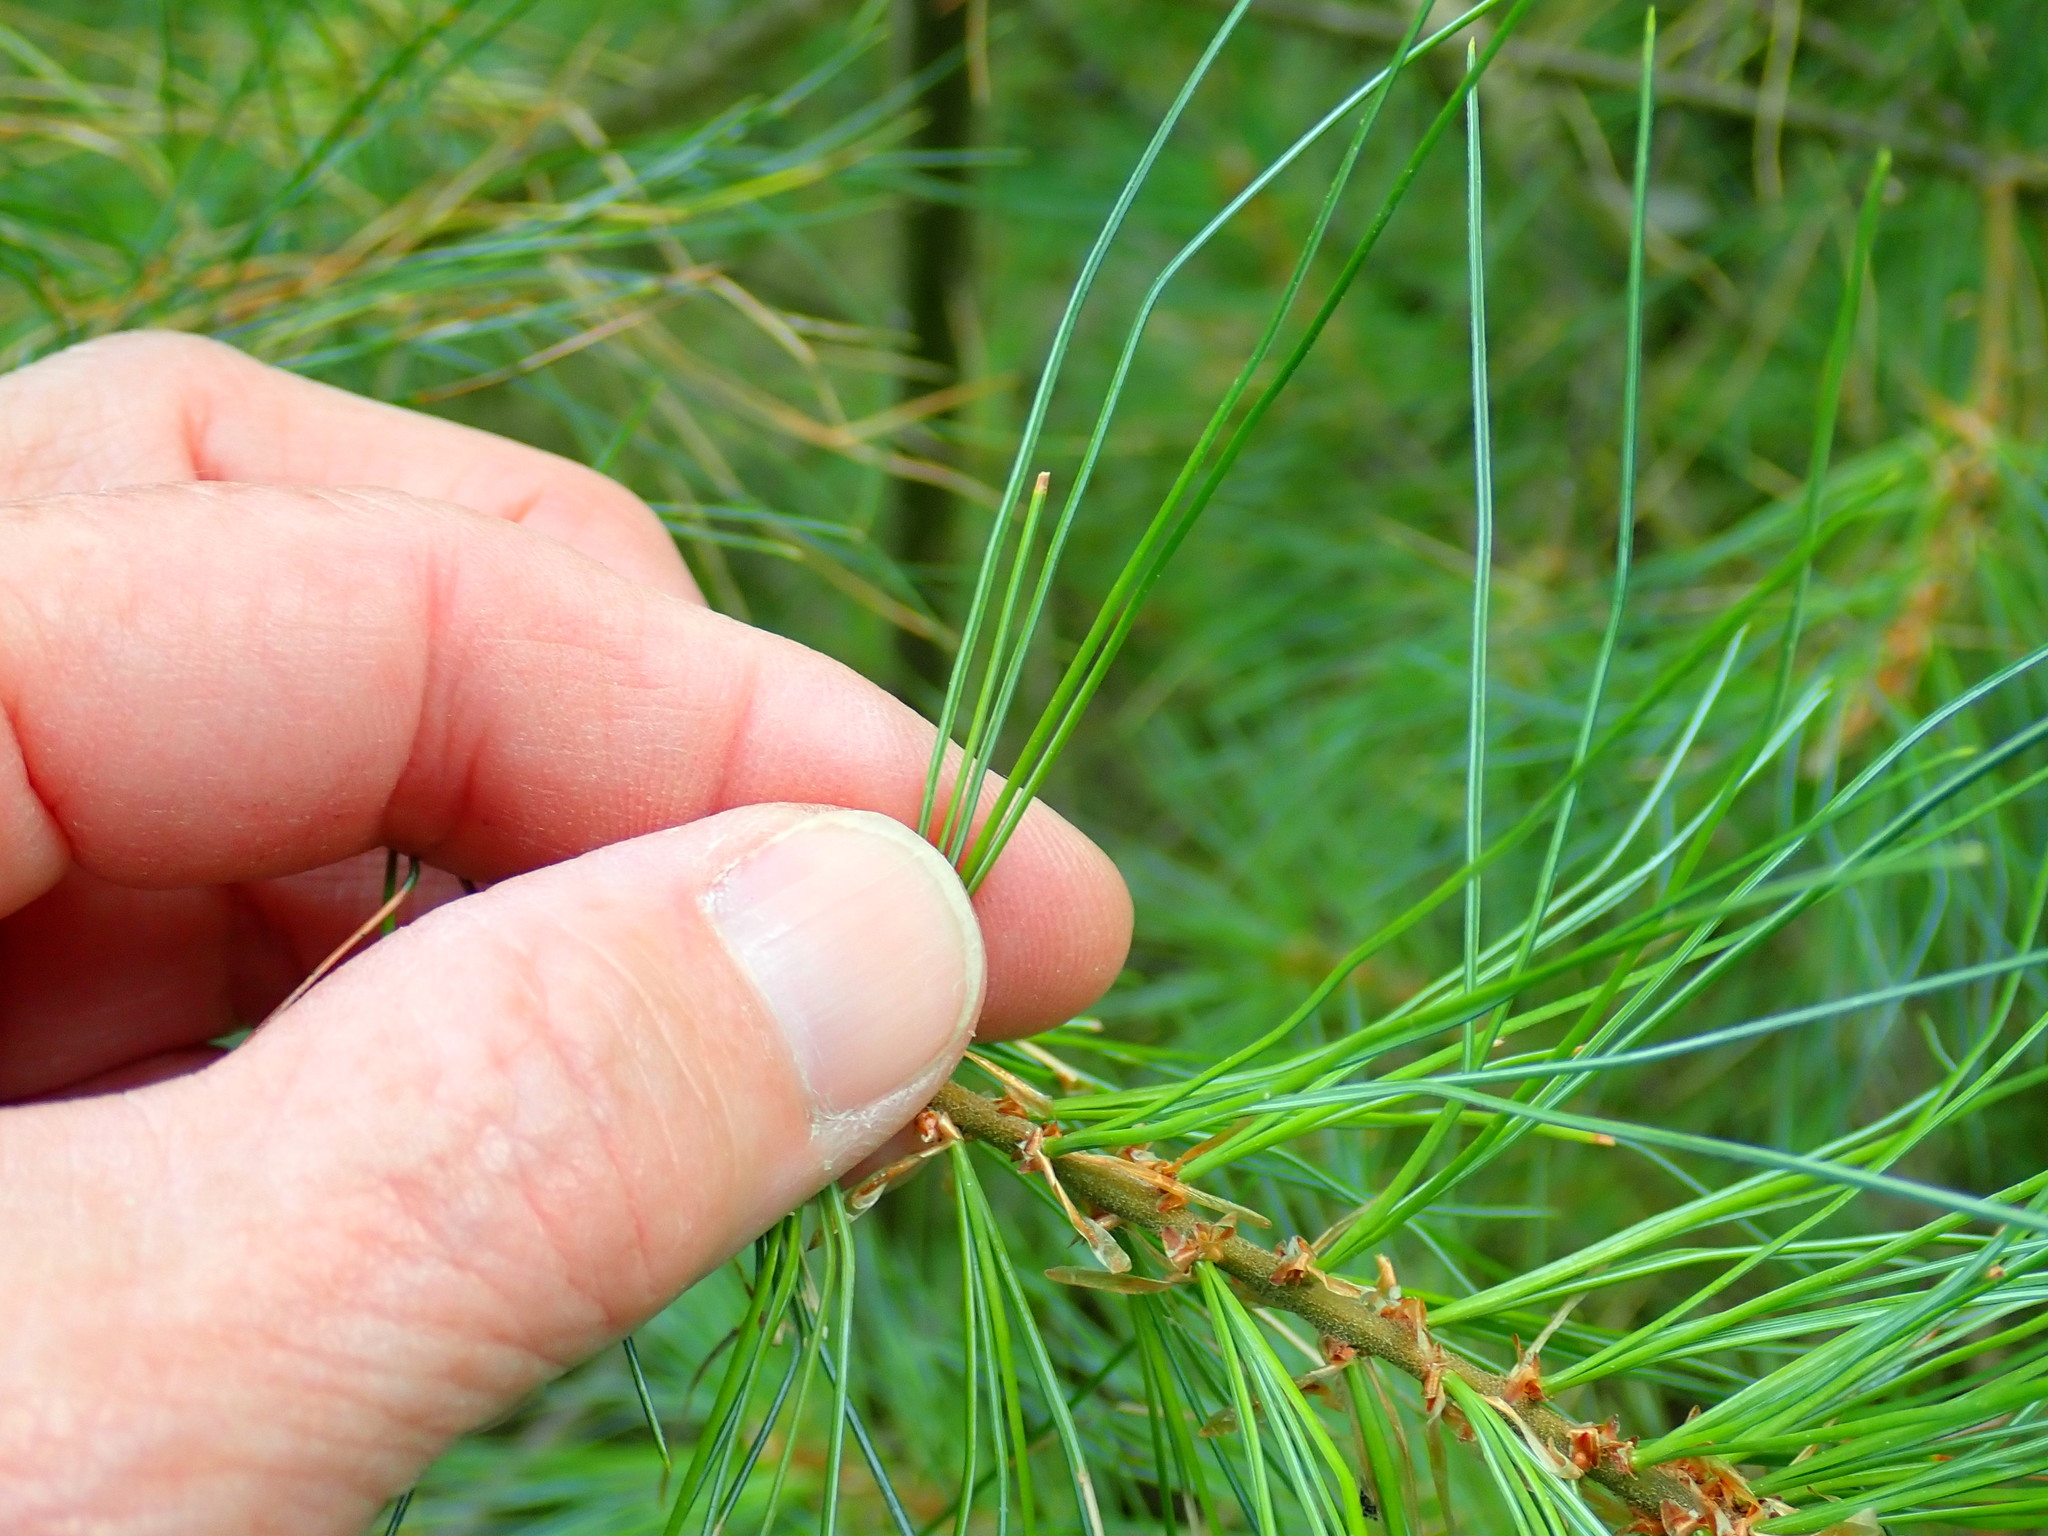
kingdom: Plantae
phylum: Tracheophyta
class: Pinopsida
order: Pinales
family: Pinaceae
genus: Pinus
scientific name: Pinus strobus
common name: Weymouth pine
